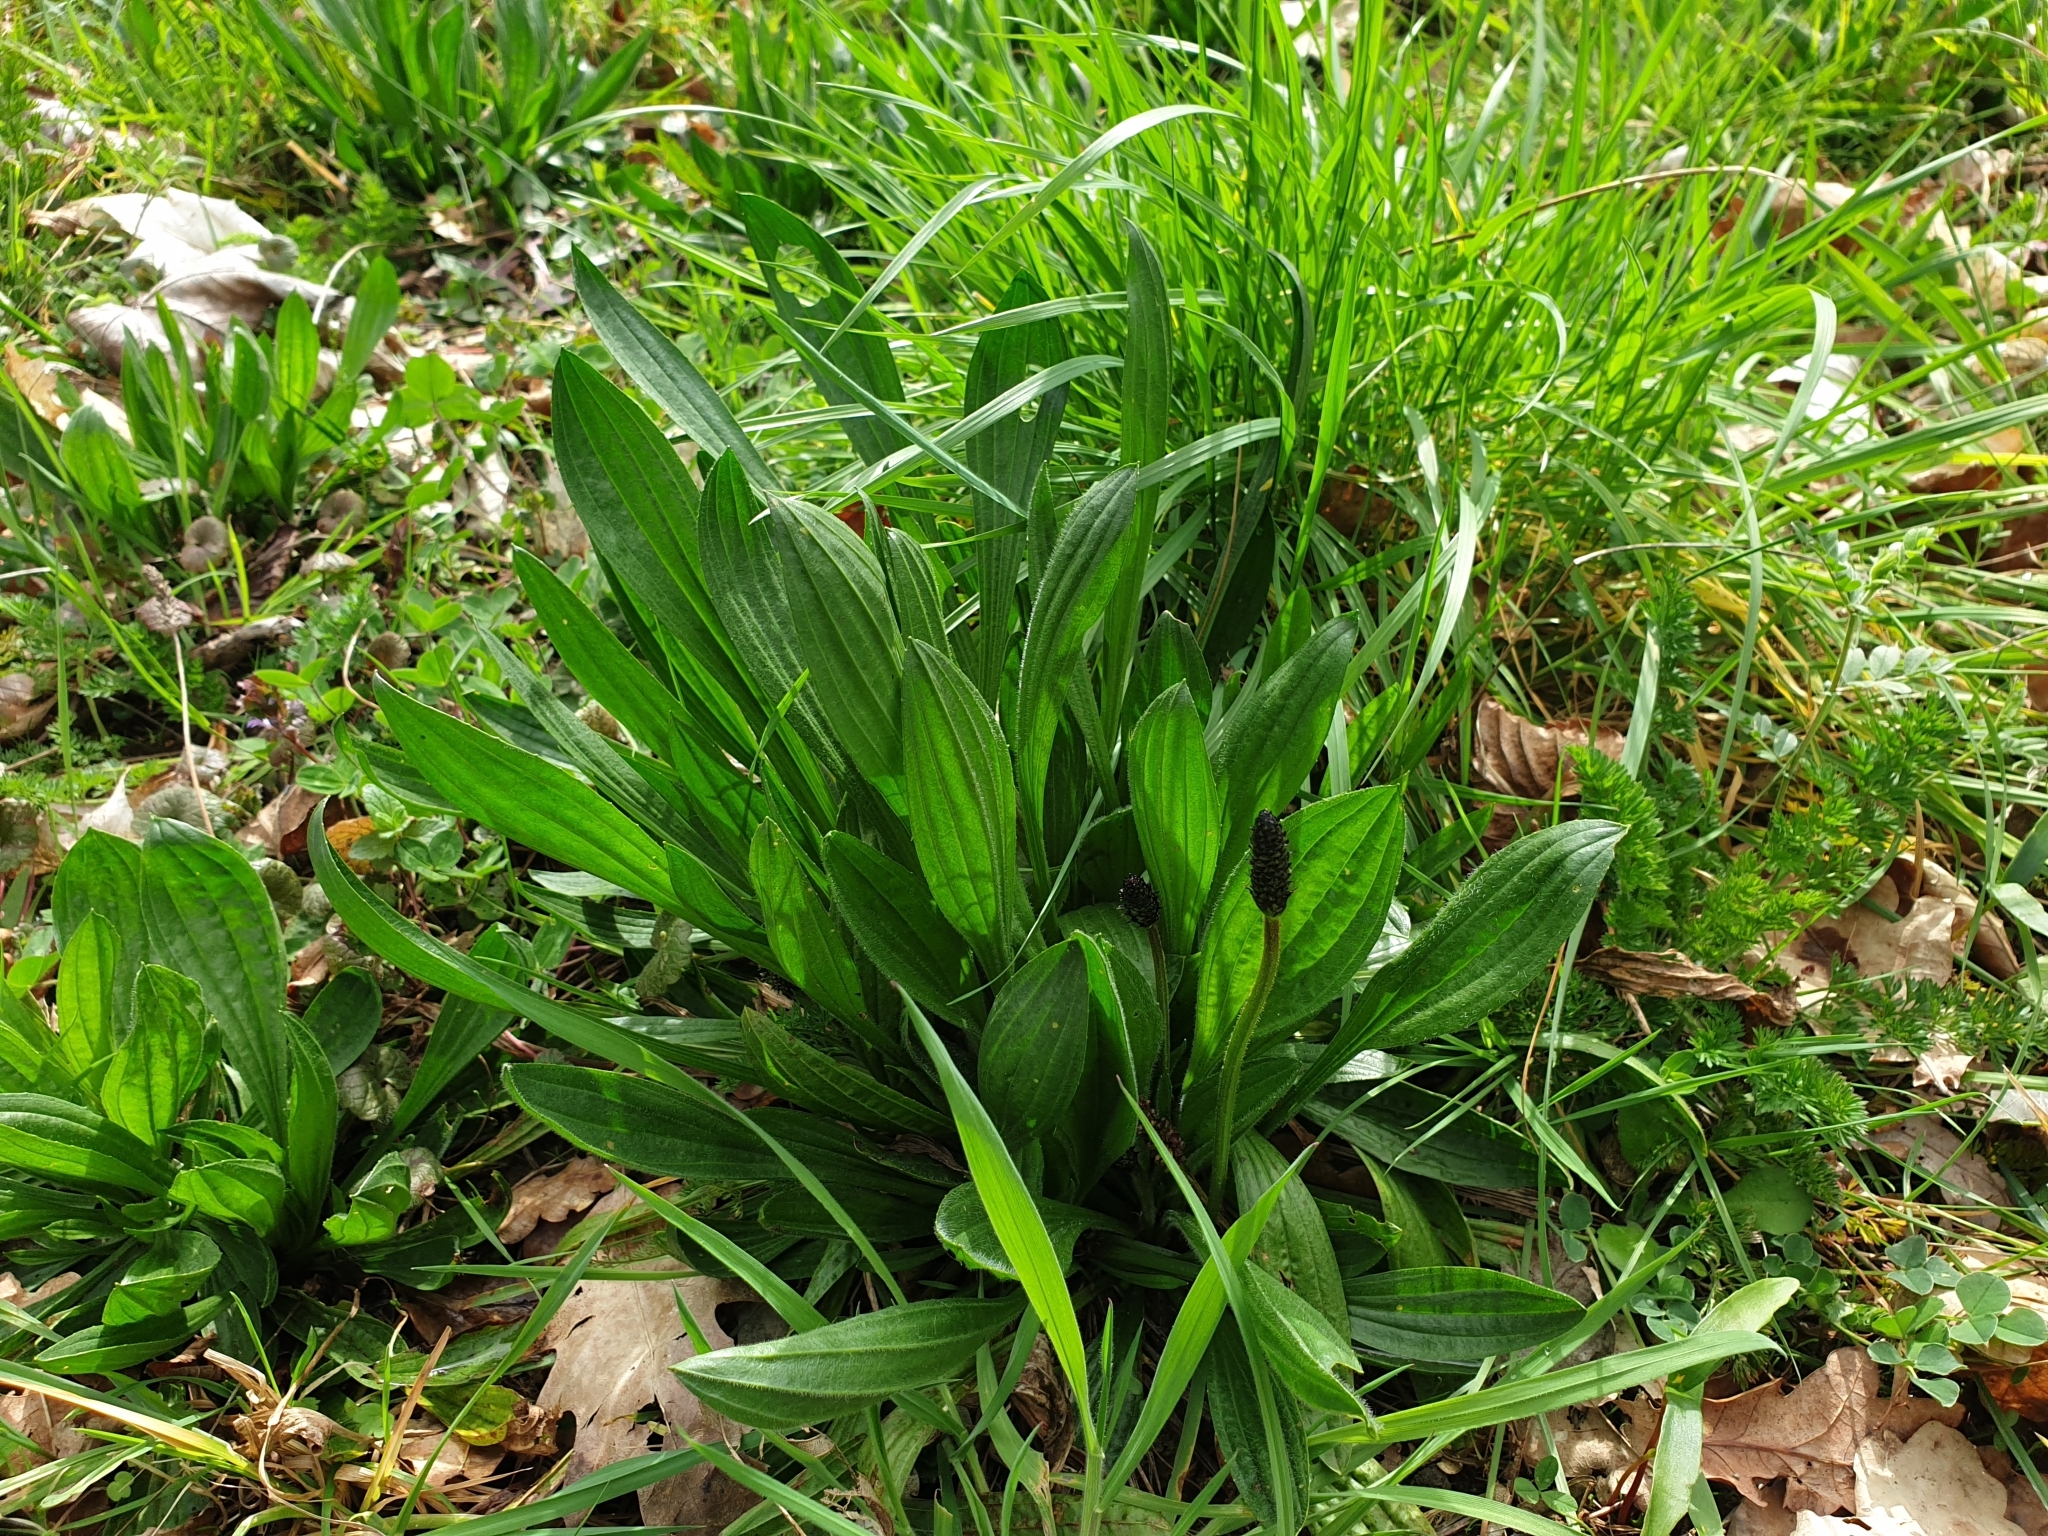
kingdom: Plantae
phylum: Tracheophyta
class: Magnoliopsida
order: Lamiales
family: Plantaginaceae
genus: Plantago
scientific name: Plantago lanceolata
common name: Ribwort plantain
